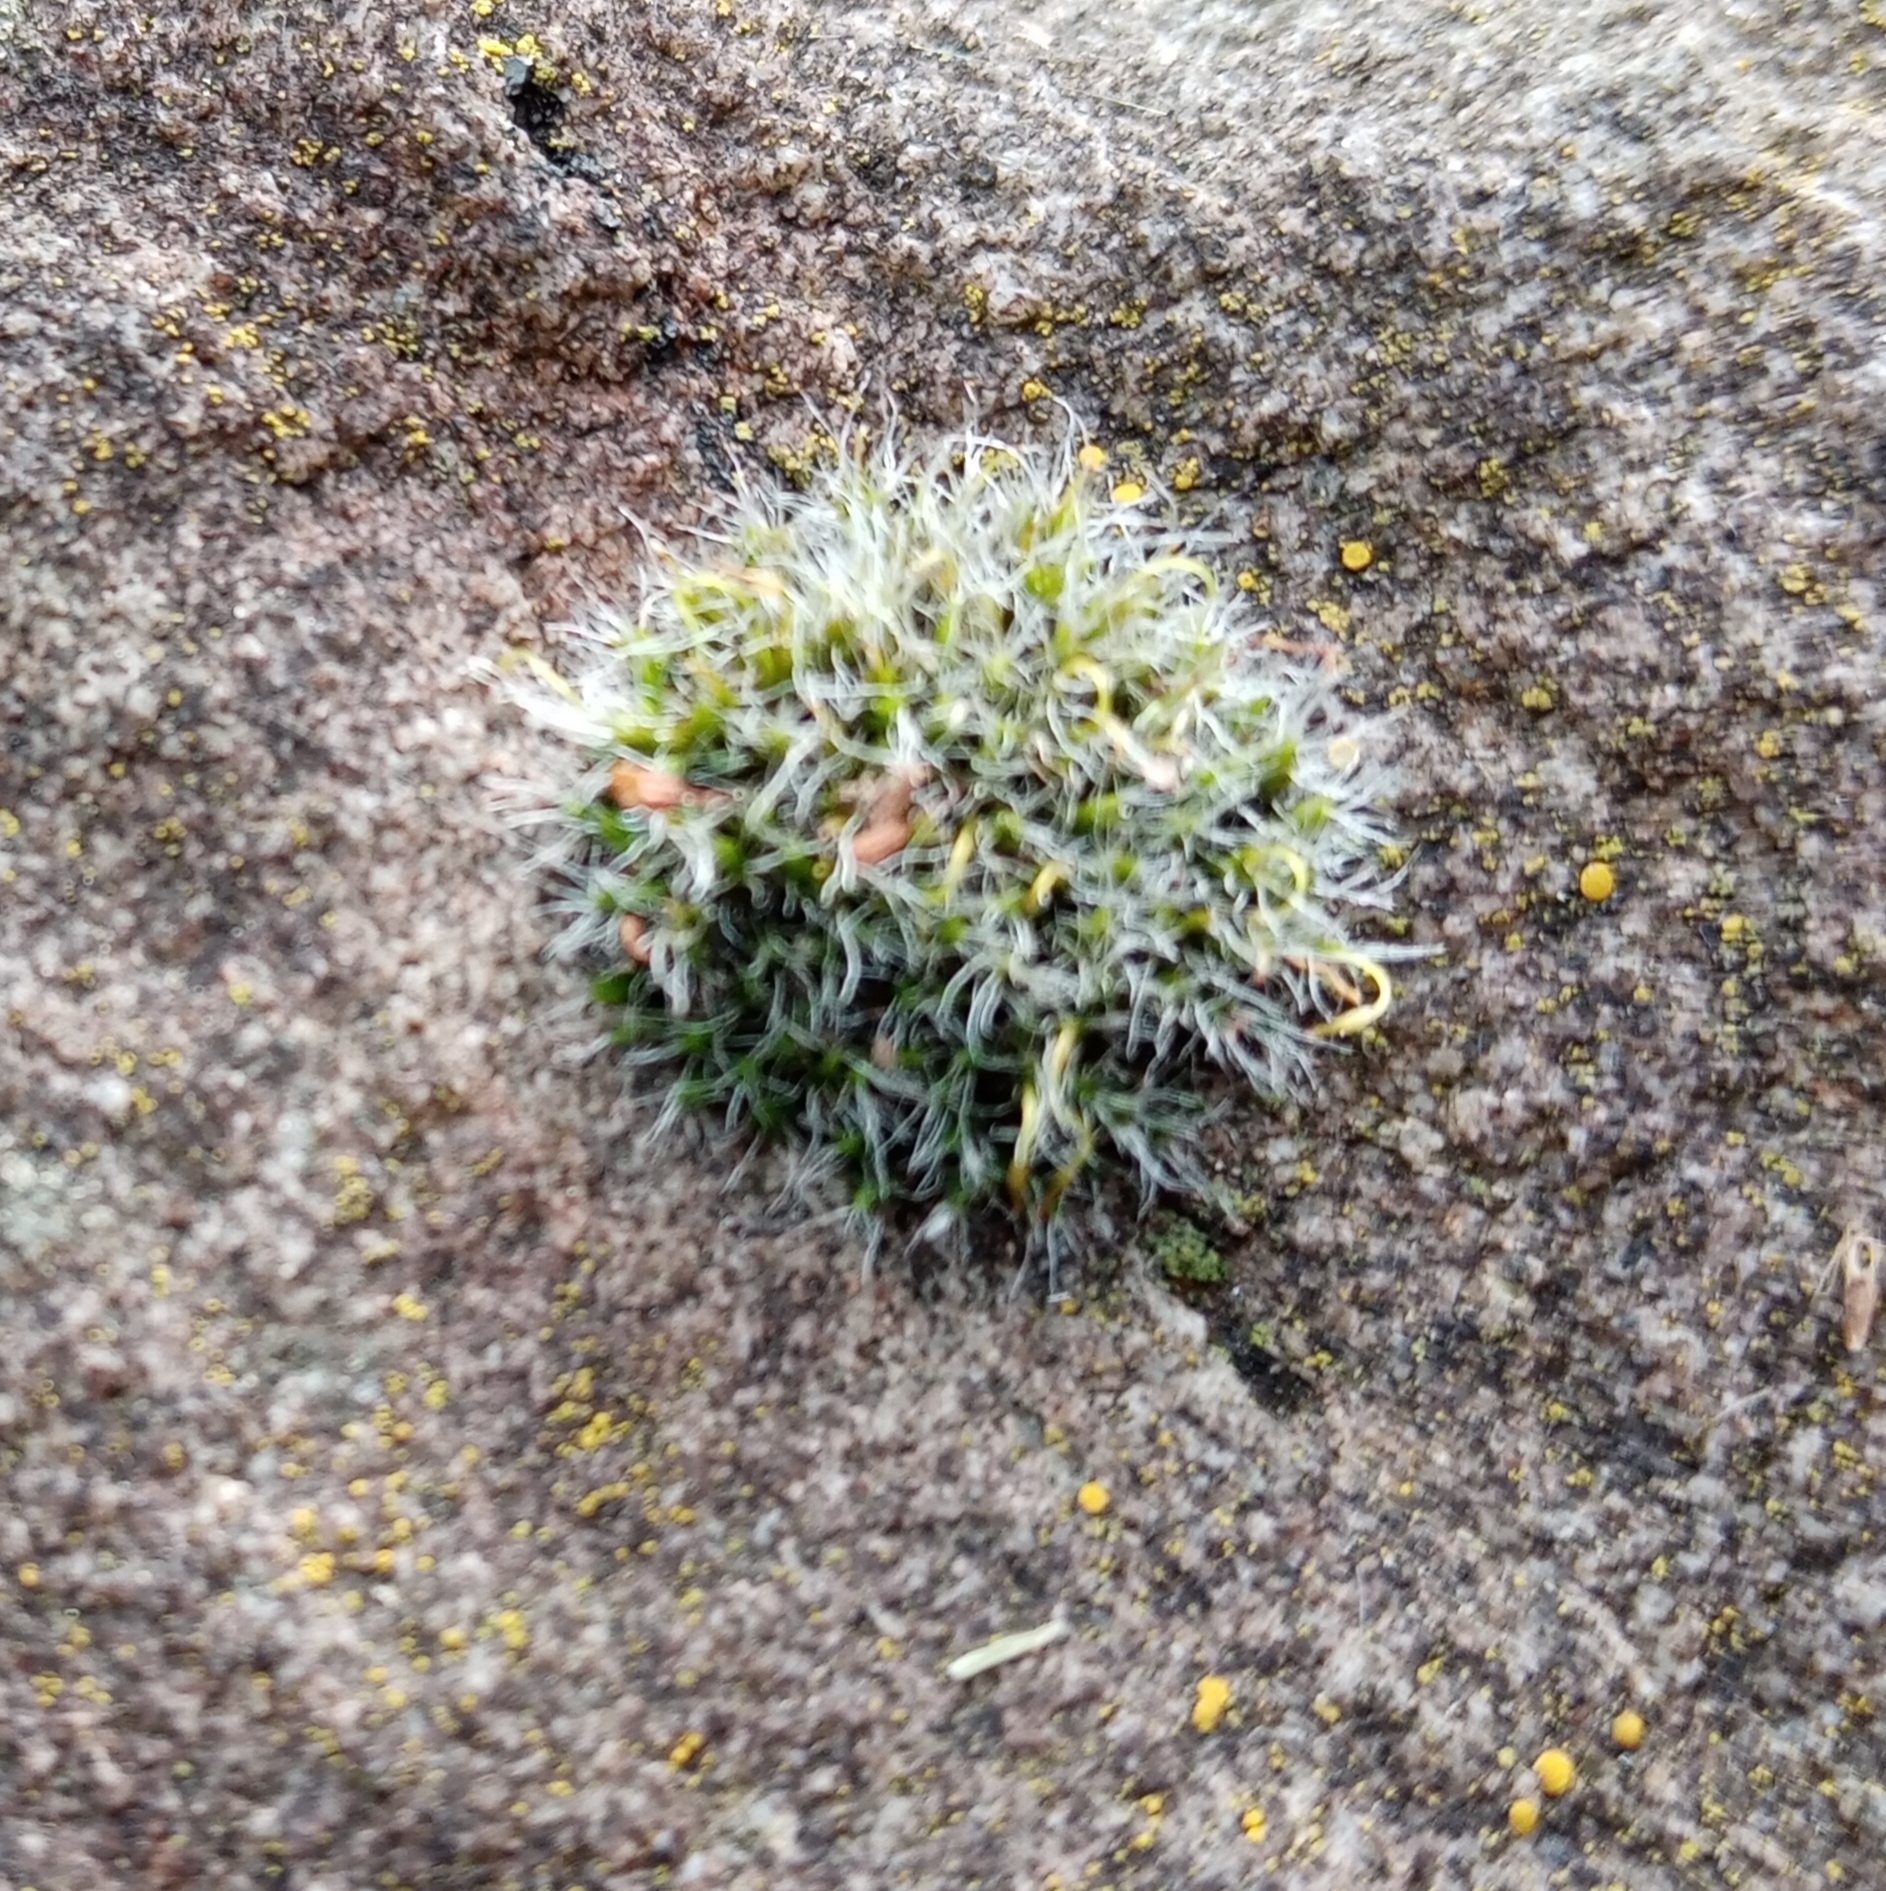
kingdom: Plantae
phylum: Bryophyta
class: Bryopsida
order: Grimmiales
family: Grimmiaceae
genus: Grimmia
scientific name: Grimmia pulvinata
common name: Grey-cushioned grimmia
